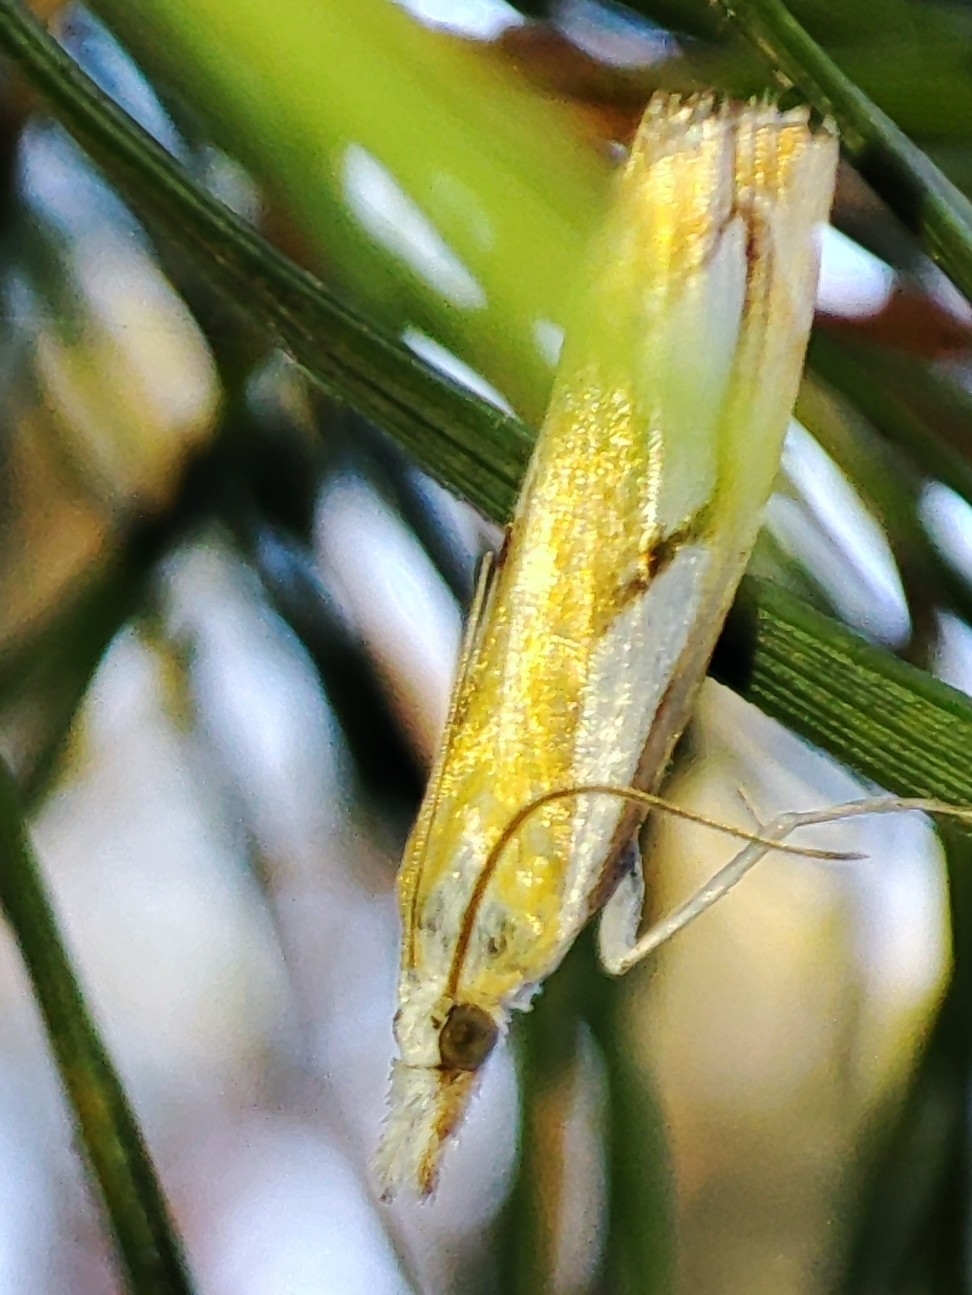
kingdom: Animalia
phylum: Arthropoda
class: Insecta
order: Lepidoptera
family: Crambidae
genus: Catoptria
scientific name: Catoptria pinella
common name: Pearl grass-veneer
